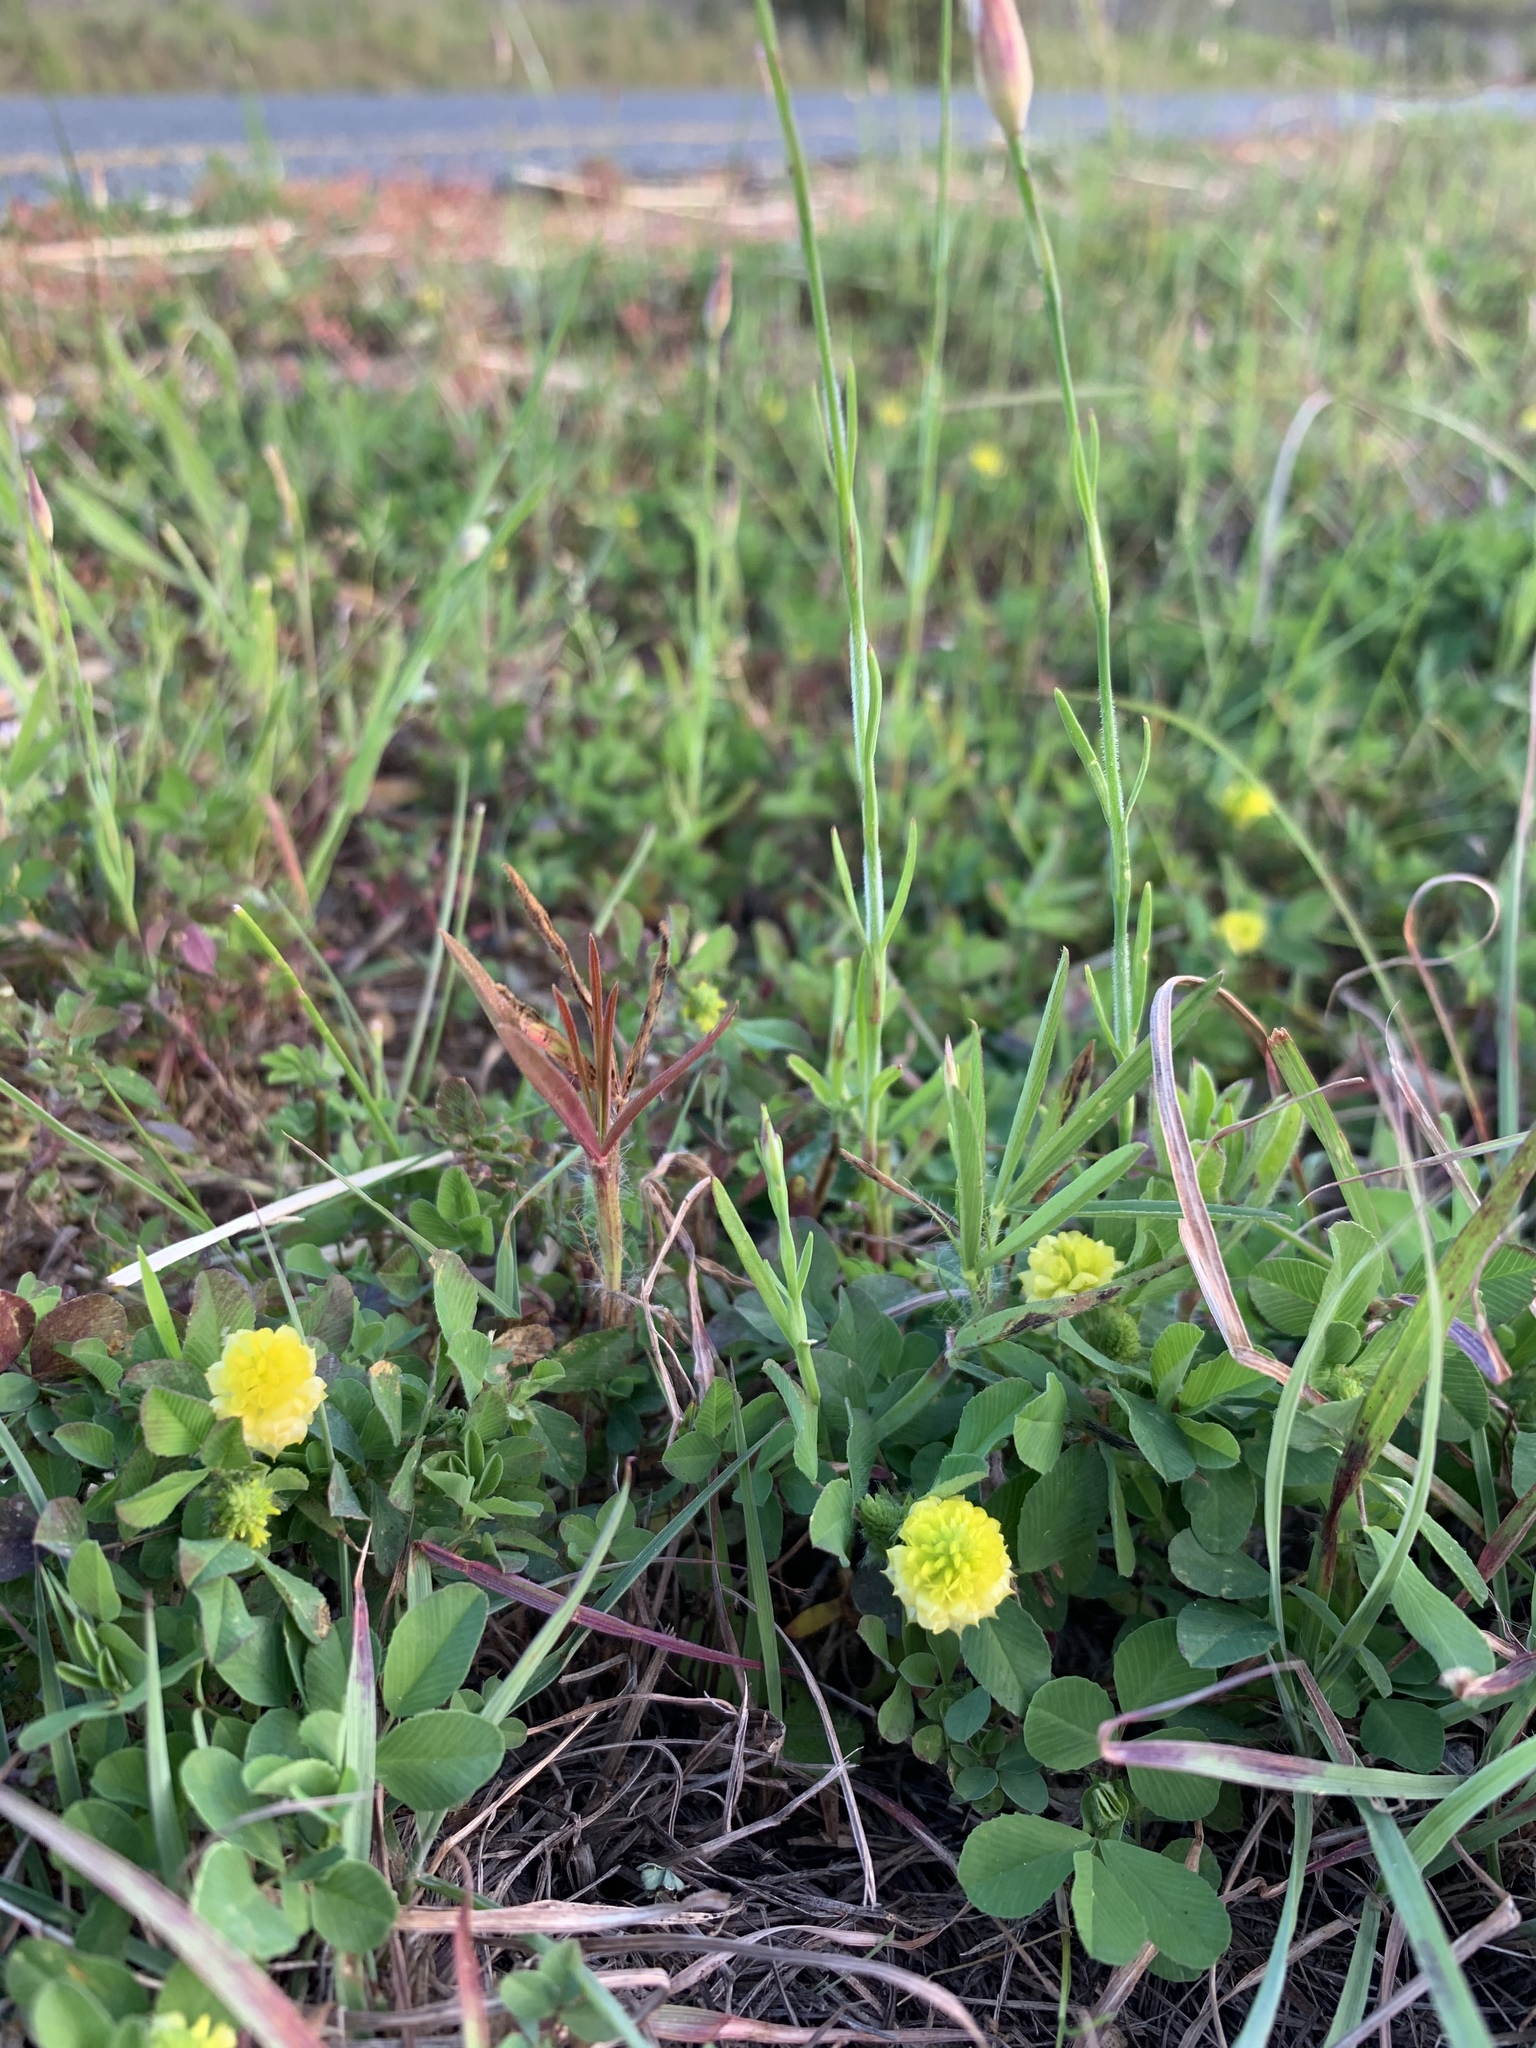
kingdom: Plantae
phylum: Tracheophyta
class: Magnoliopsida
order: Fabales
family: Fabaceae
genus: Trifolium
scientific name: Trifolium campestre
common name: Field clover
